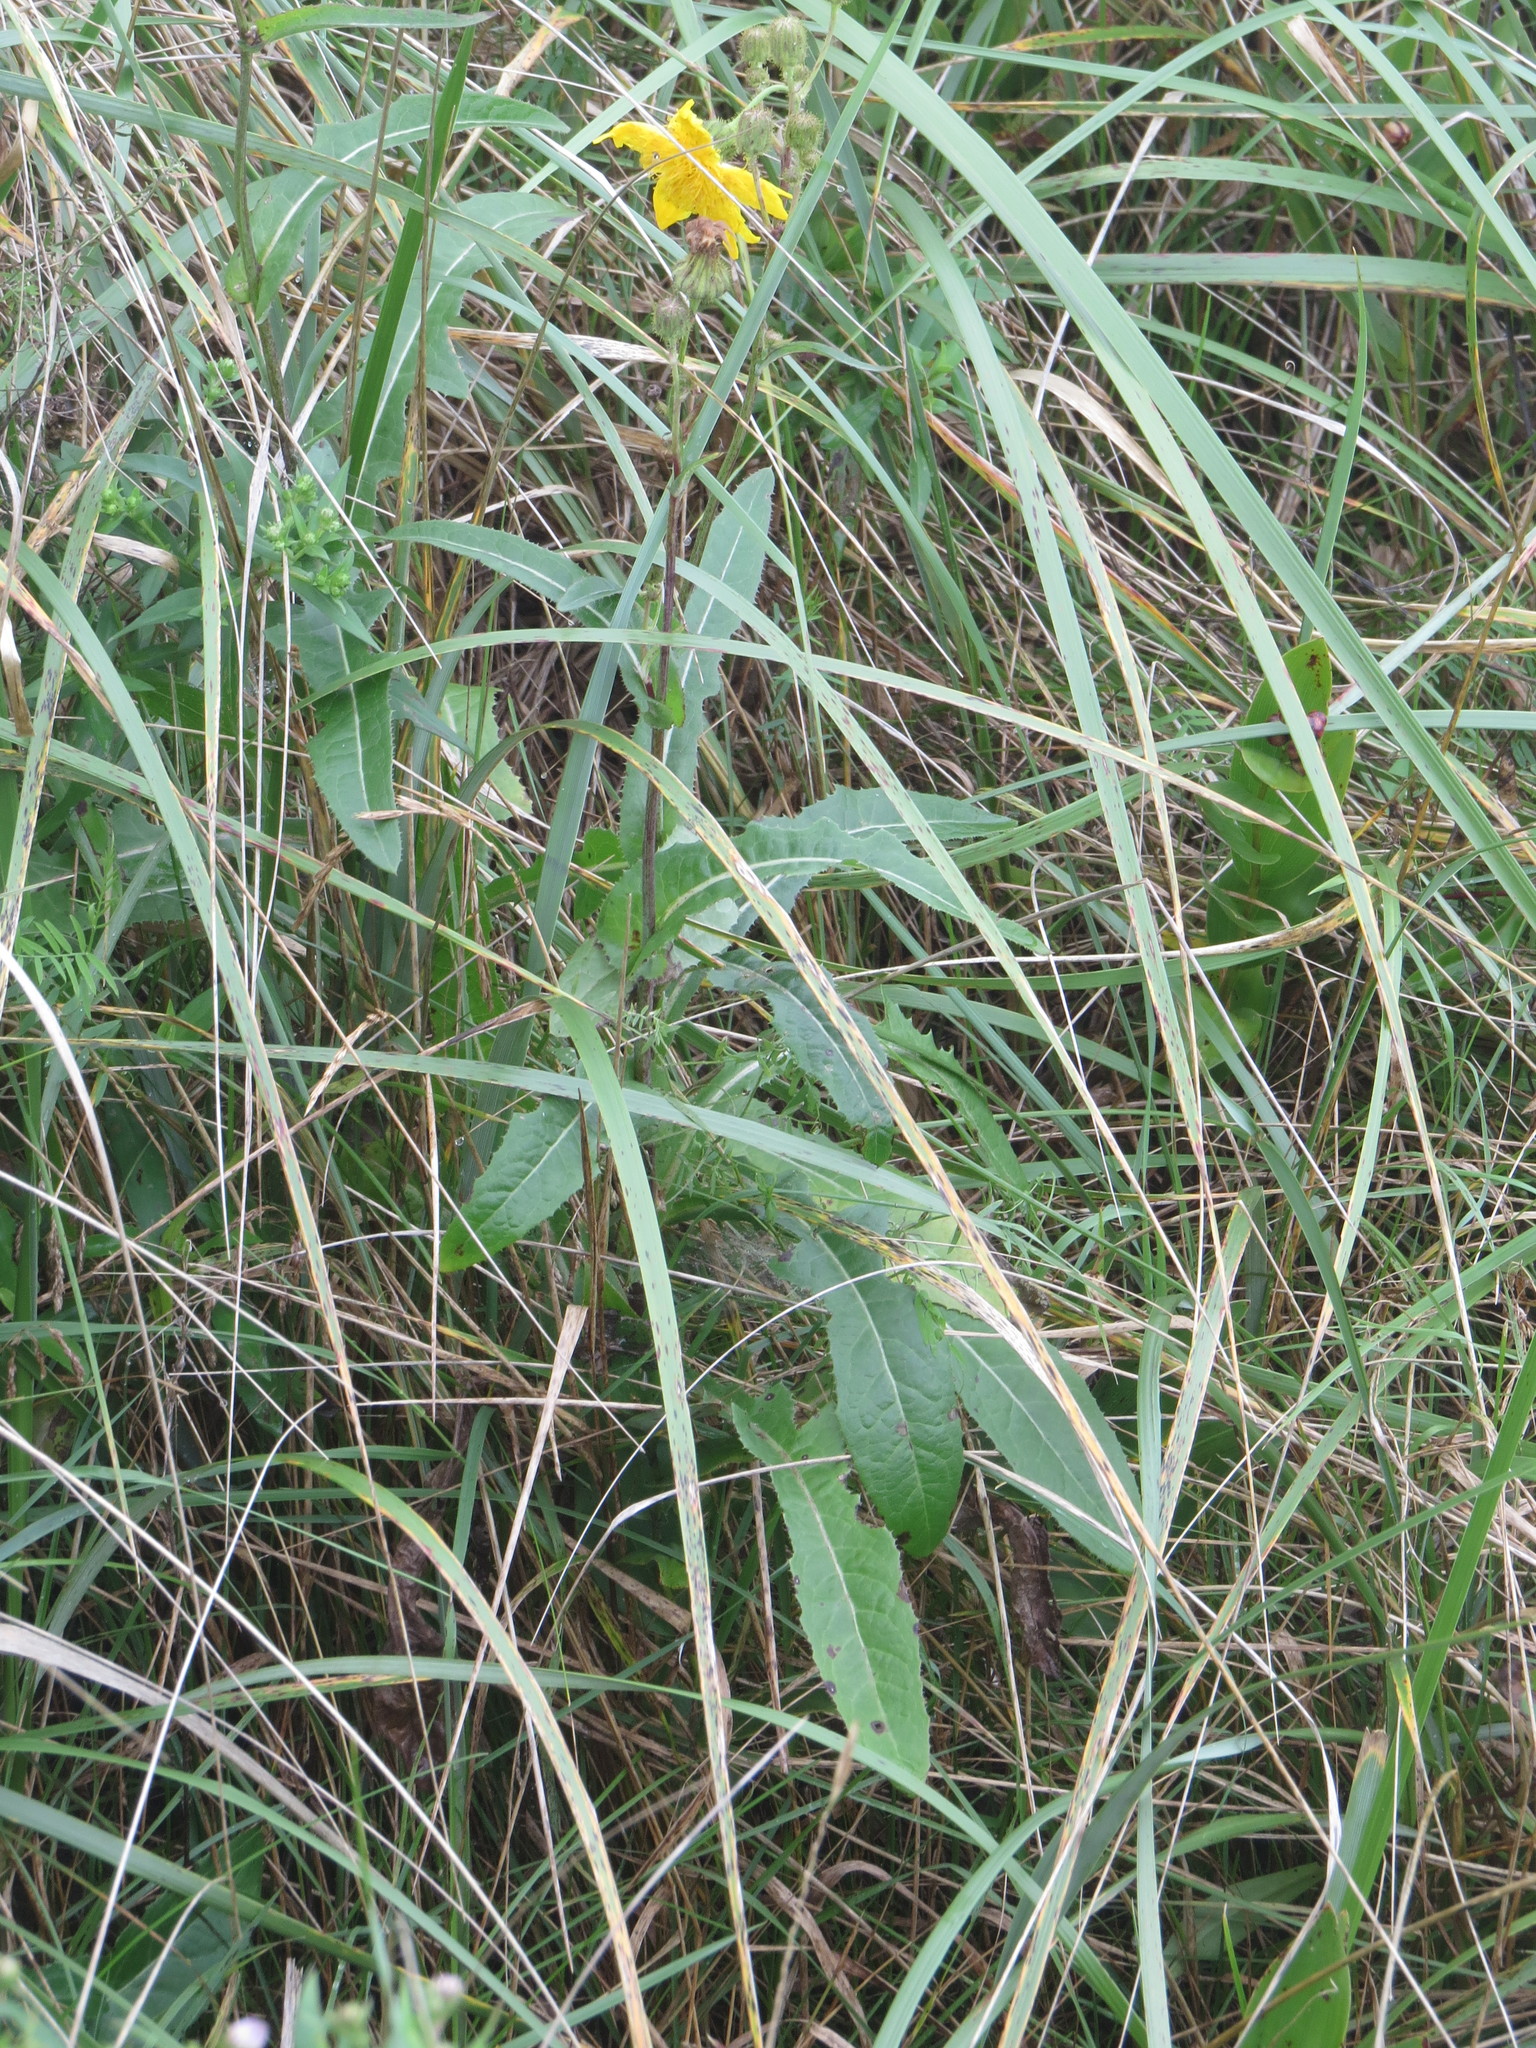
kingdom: Plantae
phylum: Tracheophyta
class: Magnoliopsida
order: Asterales
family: Asteraceae
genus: Sonchus
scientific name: Sonchus arvensis
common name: Perennial sow-thistle
